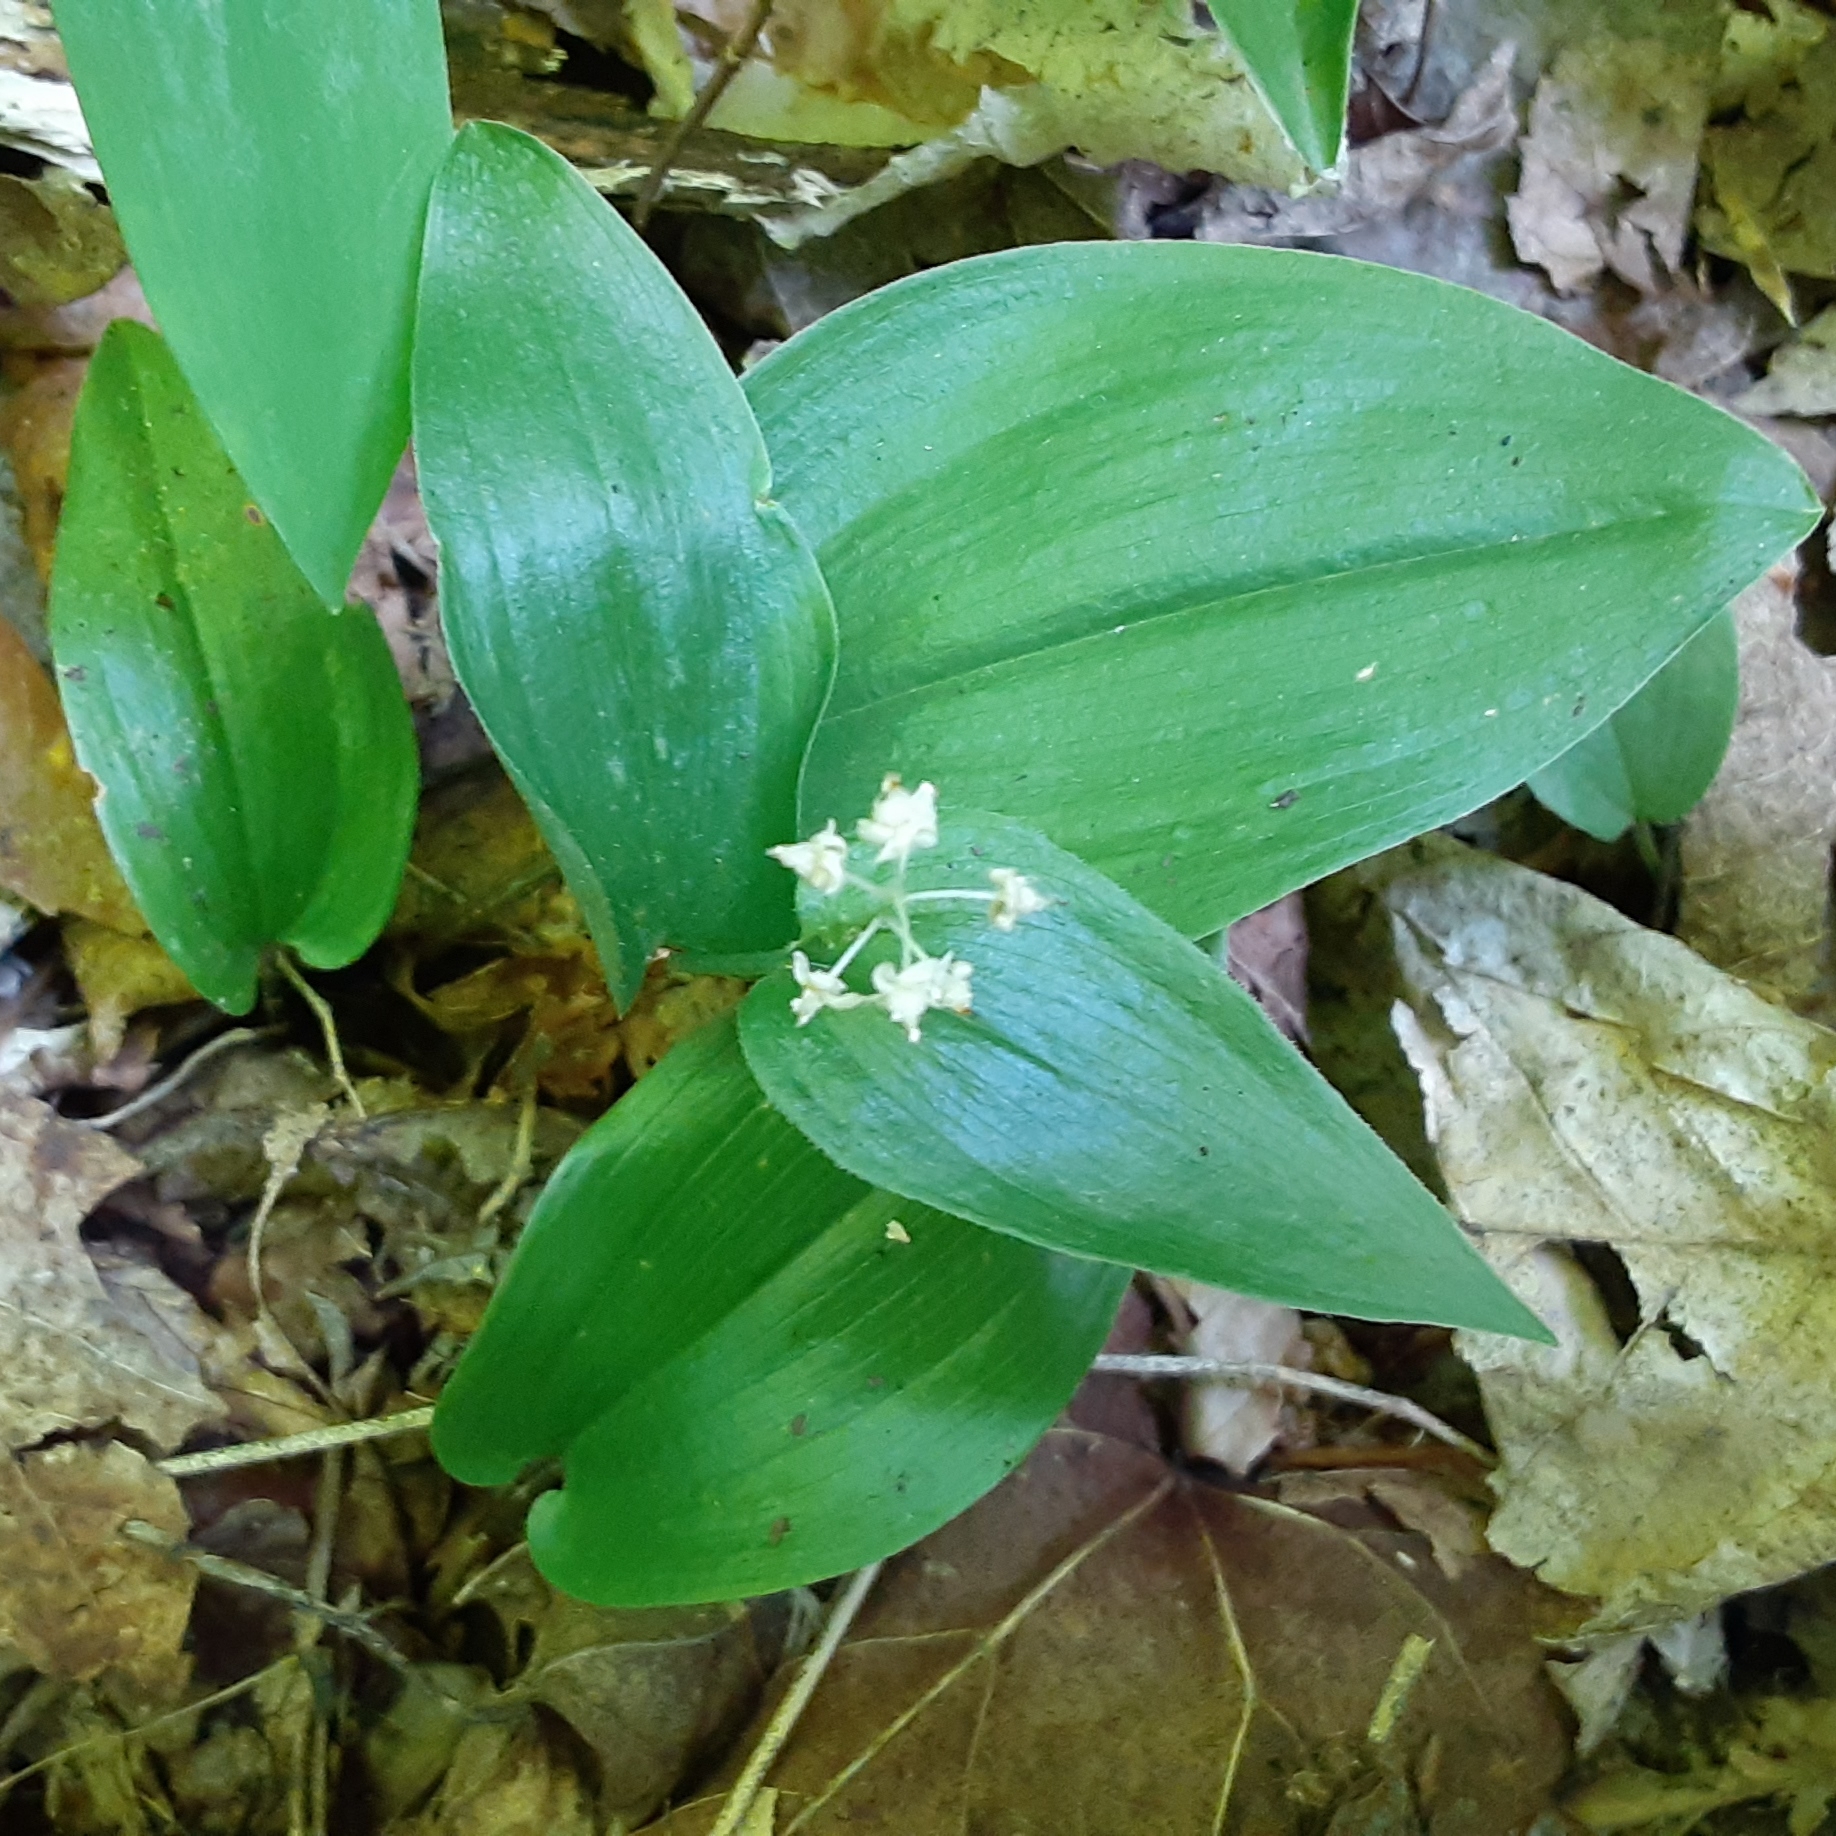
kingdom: Plantae
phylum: Tracheophyta
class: Liliopsida
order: Asparagales
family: Asparagaceae
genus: Maianthemum
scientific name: Maianthemum canadense
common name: False lily-of-the-valley
